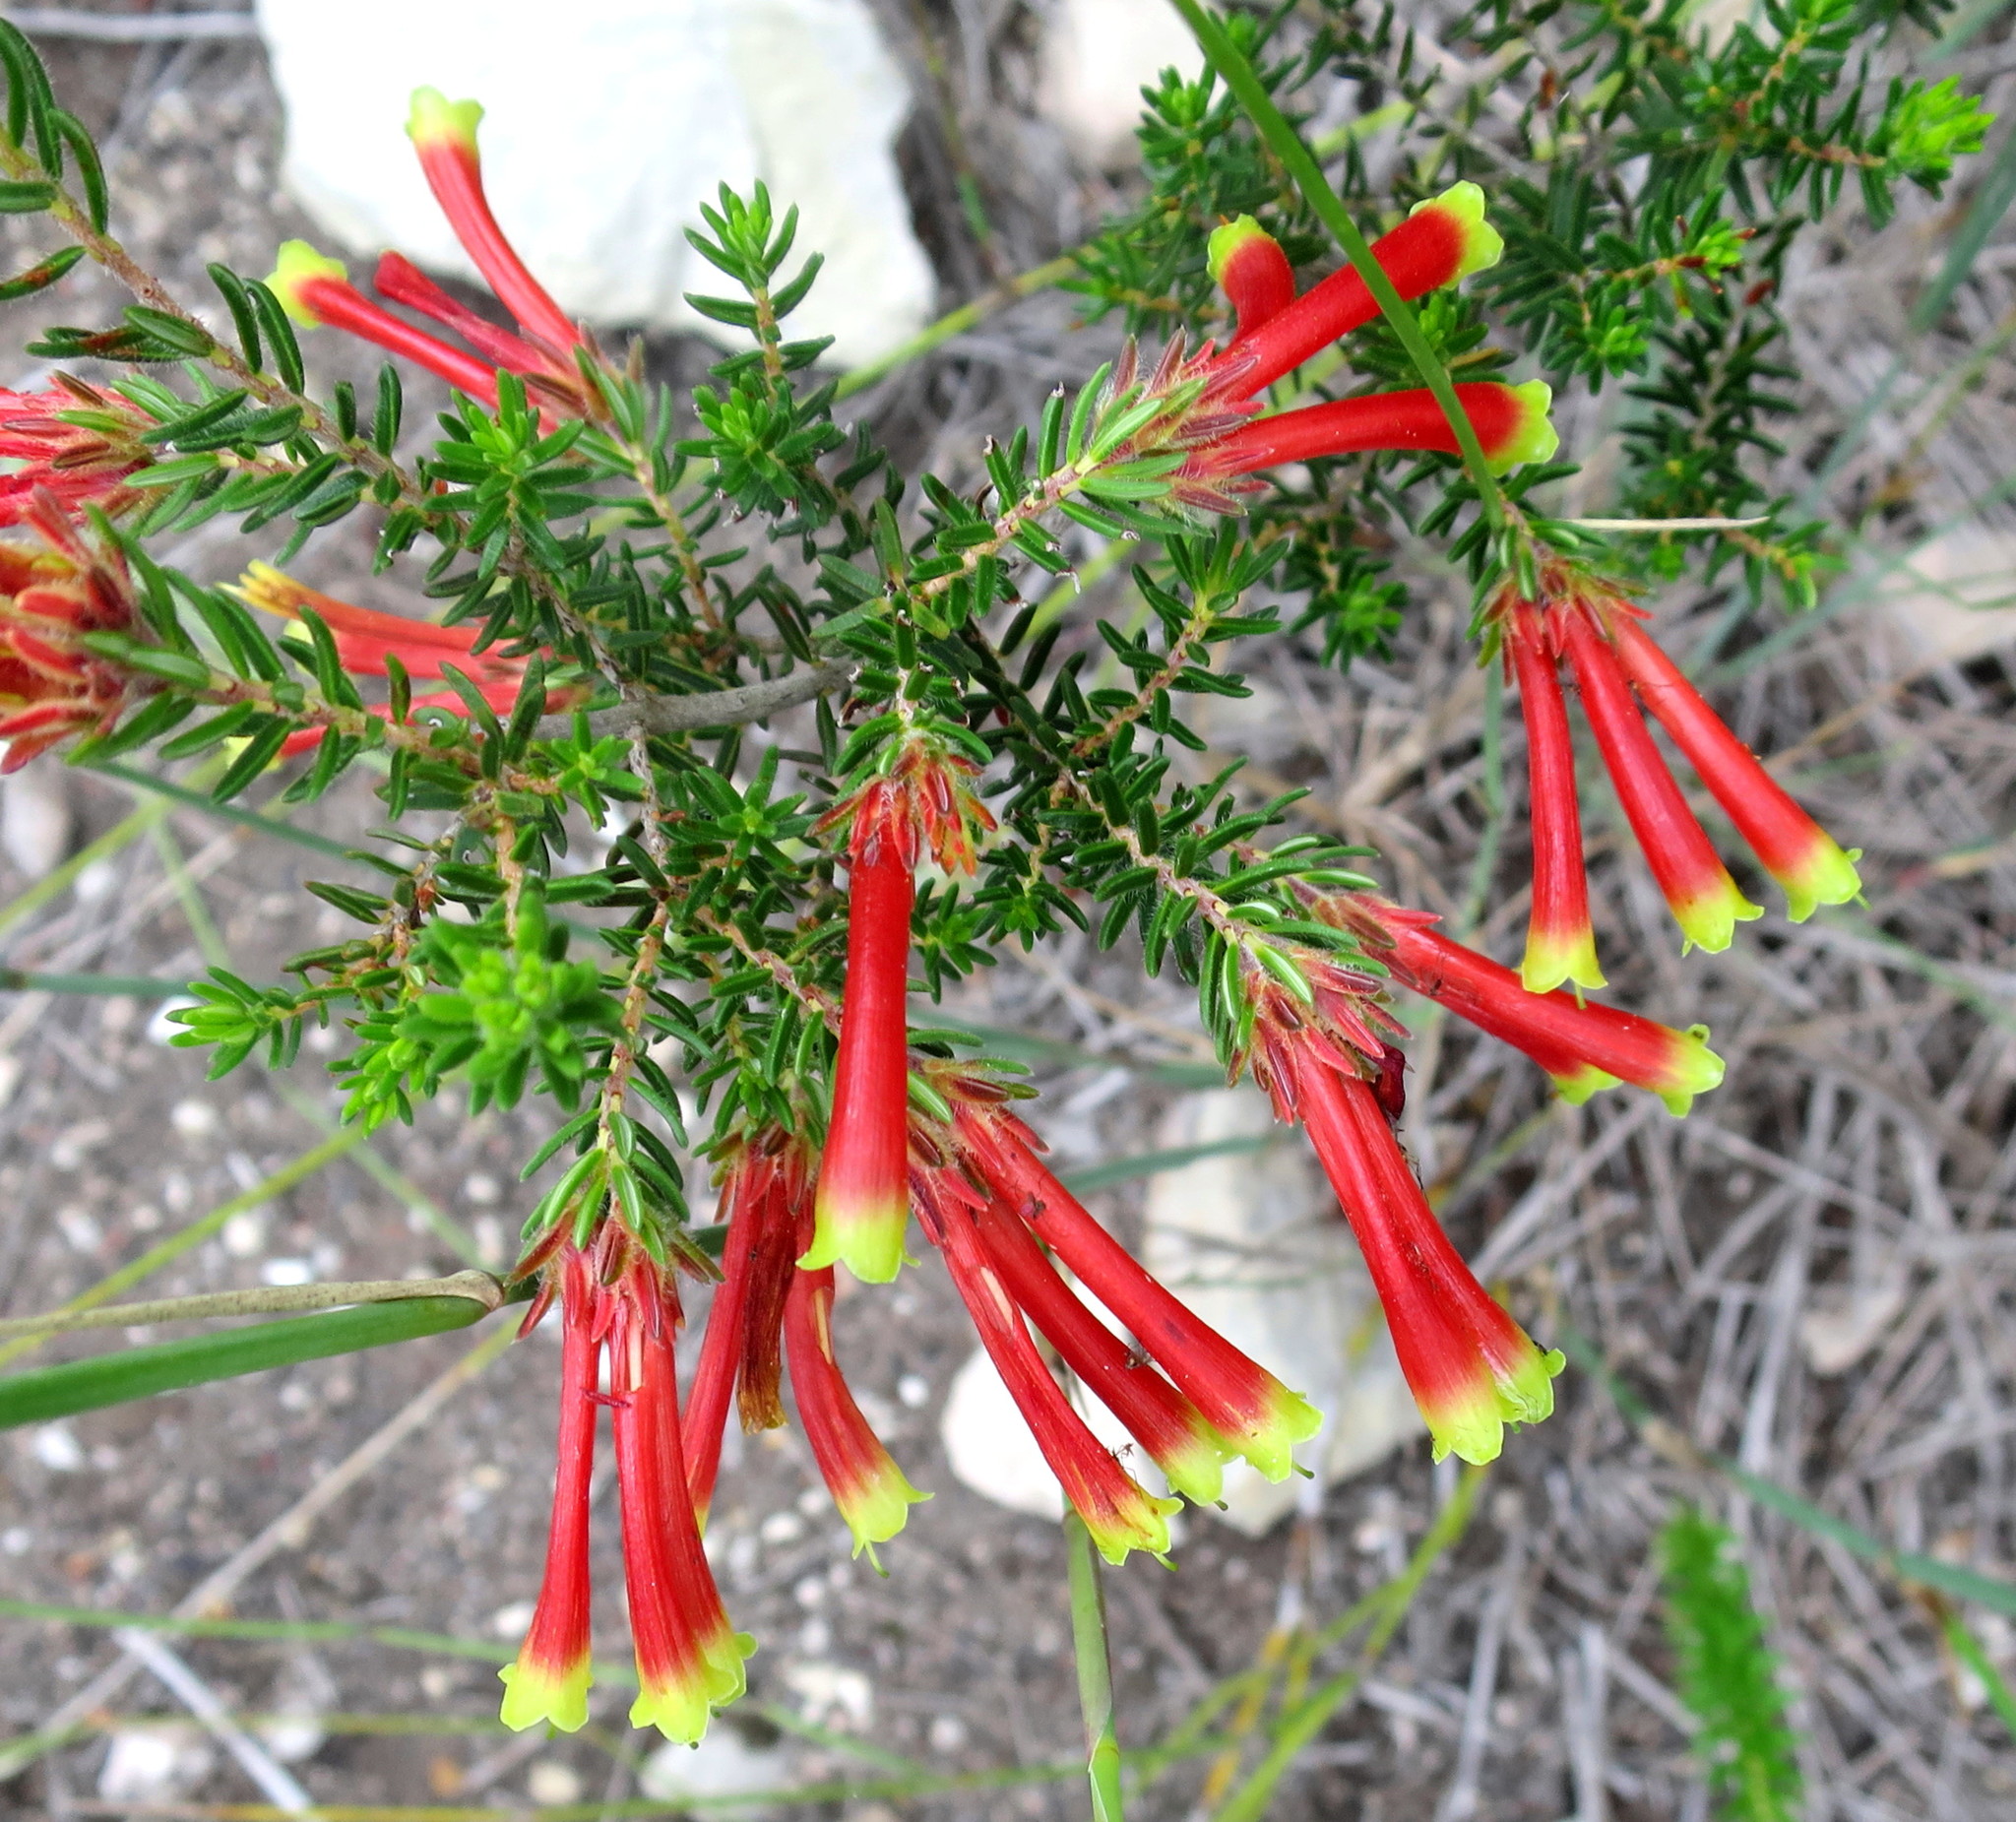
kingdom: Plantae
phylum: Tracheophyta
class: Magnoliopsida
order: Ericales
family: Ericaceae
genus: Erica
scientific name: Erica discolor
